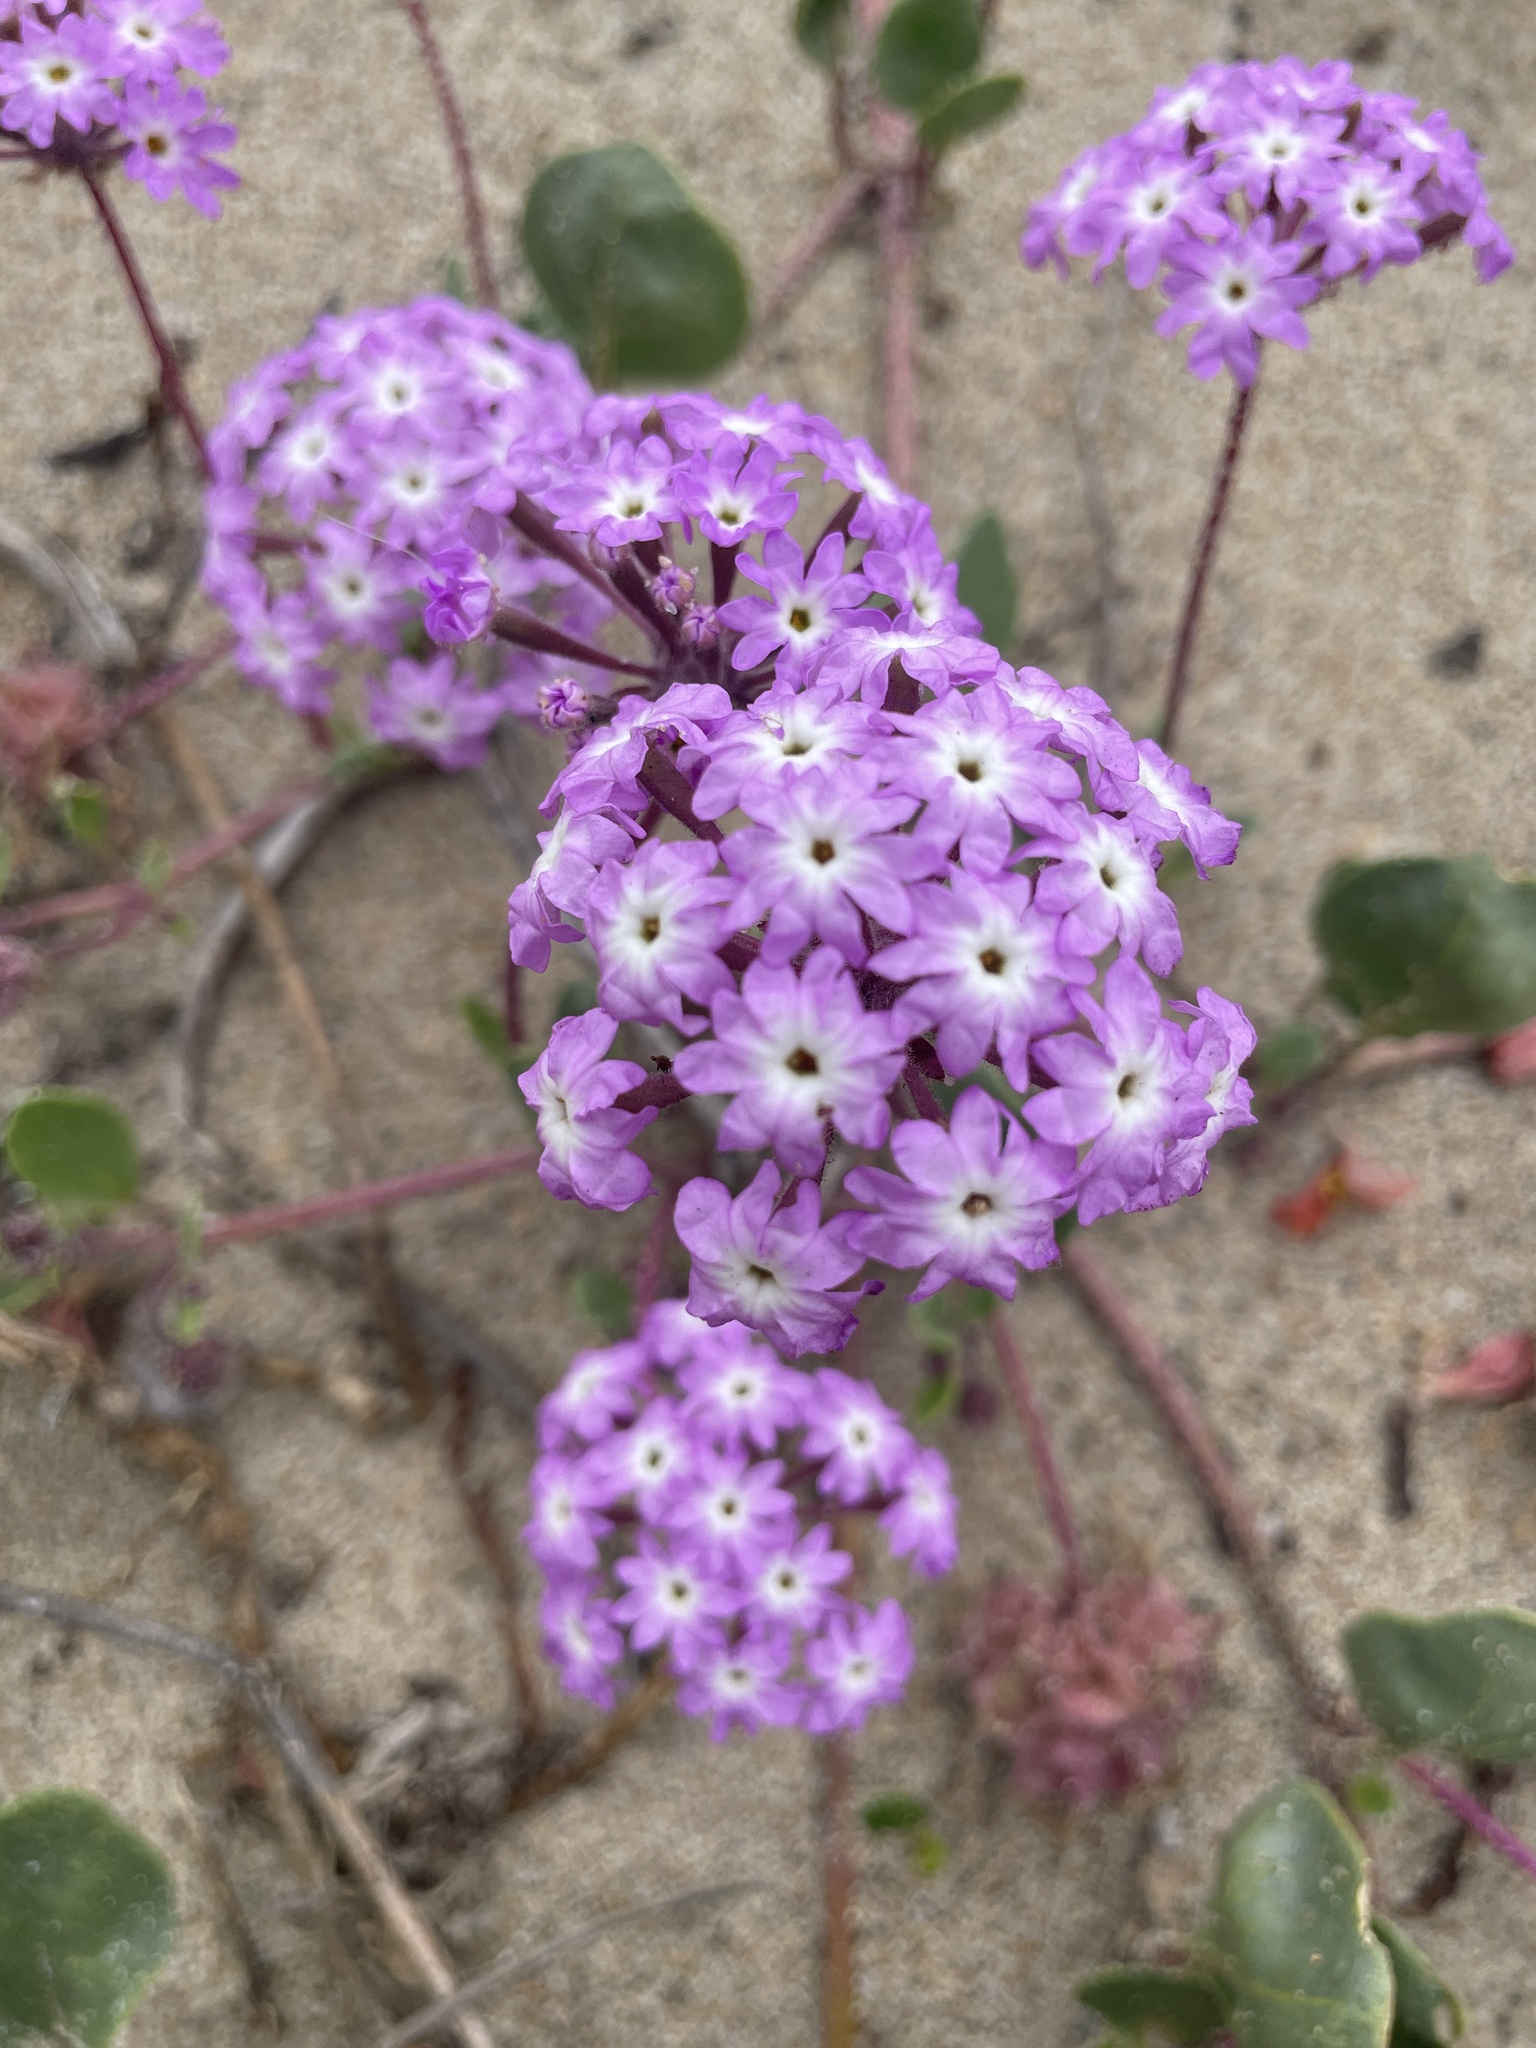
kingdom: Plantae
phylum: Tracheophyta
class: Magnoliopsida
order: Caryophyllales
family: Nyctaginaceae
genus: Abronia
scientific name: Abronia umbellata
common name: Sand-verbena
